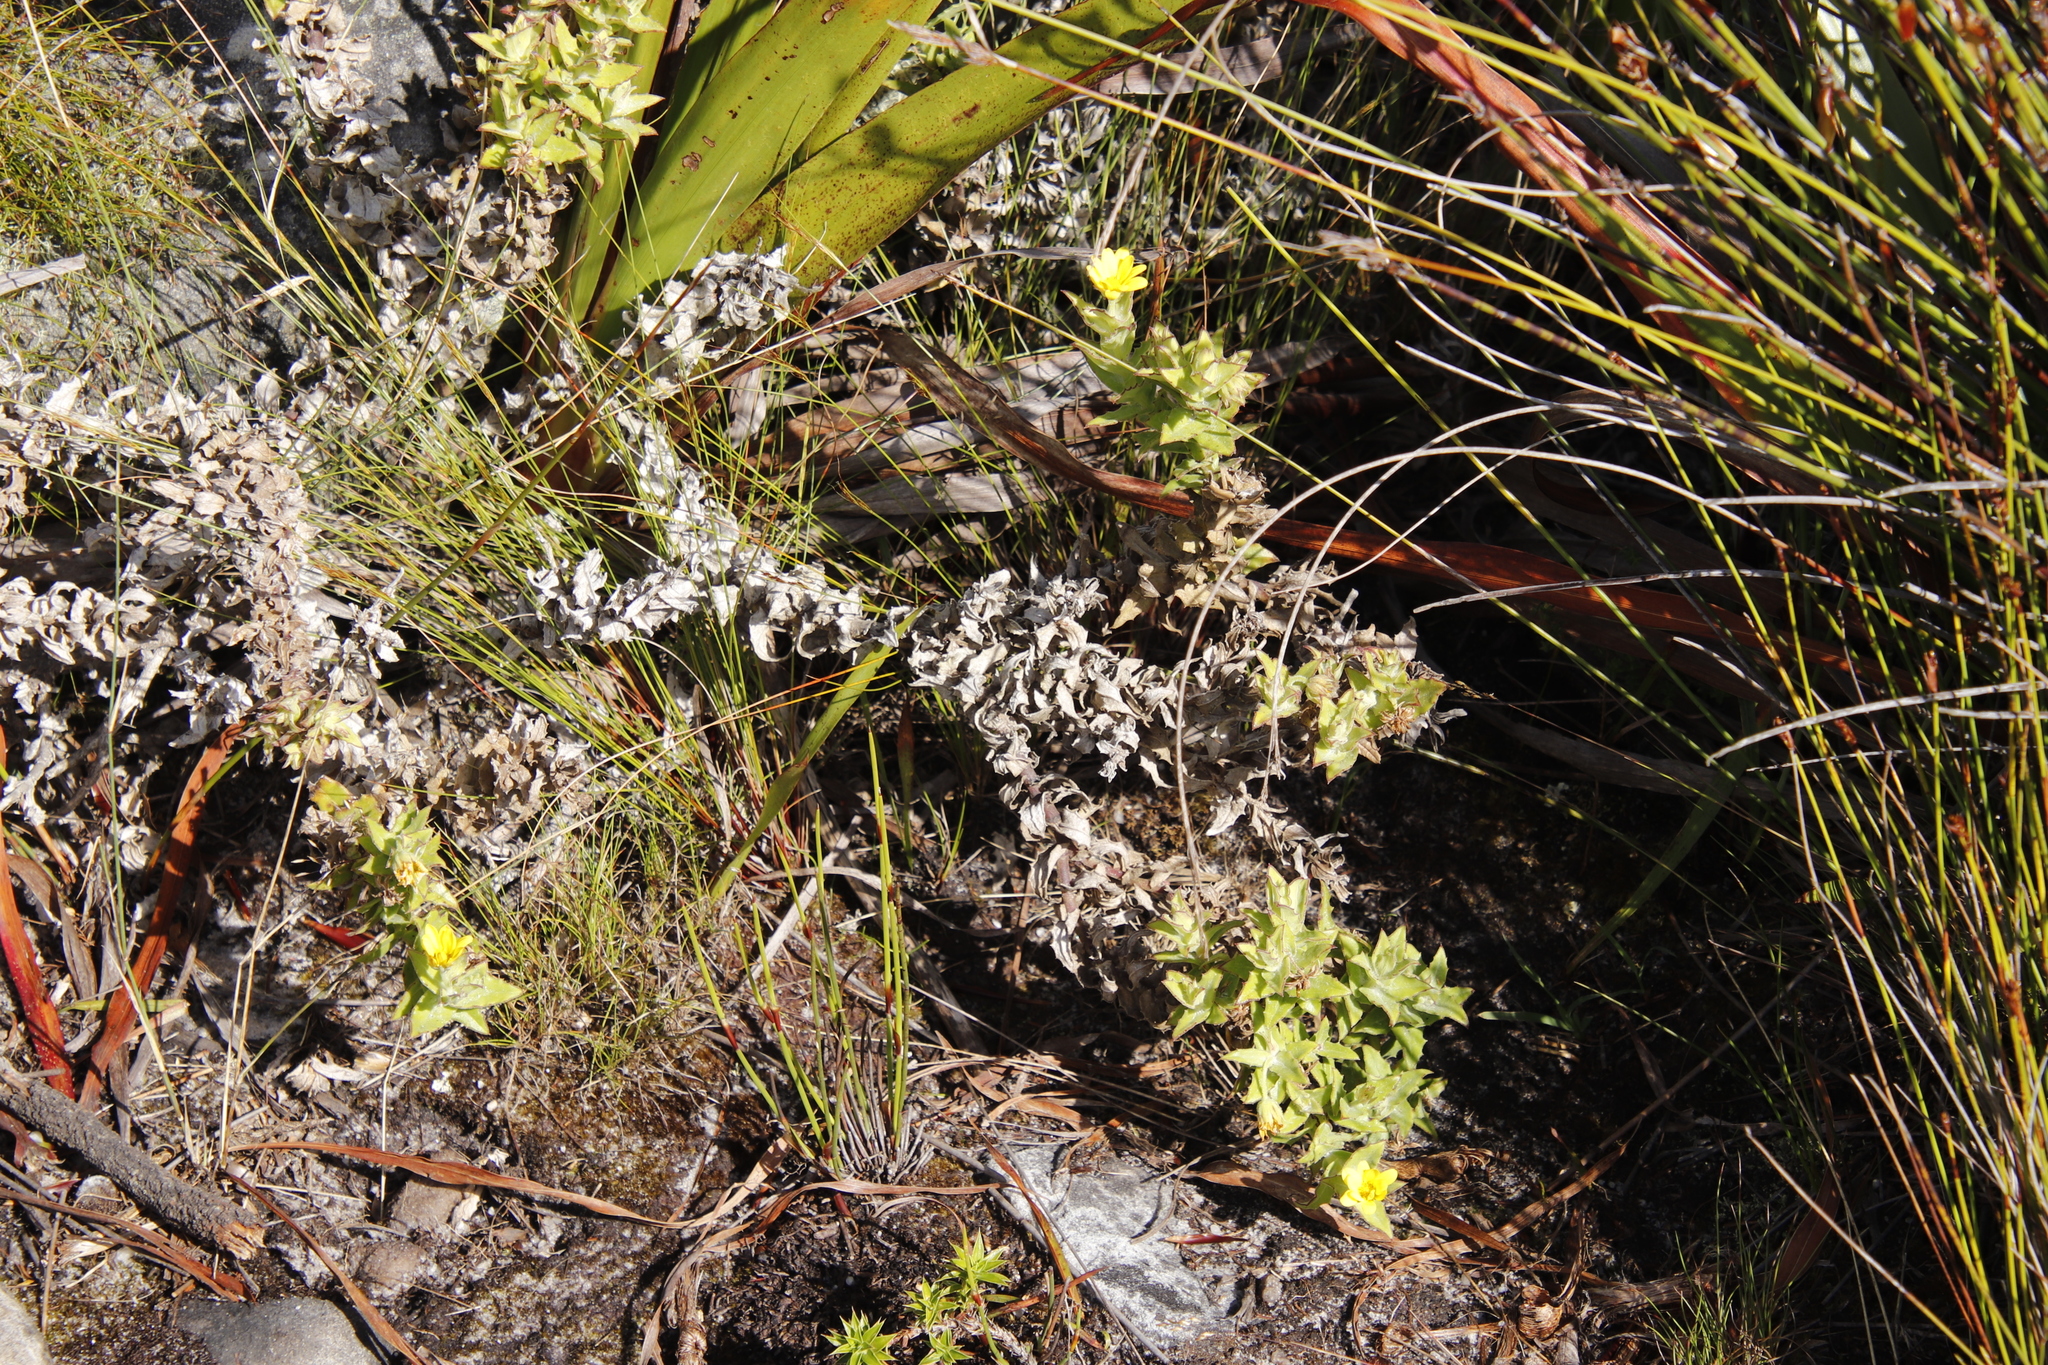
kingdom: Plantae
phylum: Tracheophyta
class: Magnoliopsida
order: Asterales
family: Asteraceae
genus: Osteospermum
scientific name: Osteospermum ilicifolium
